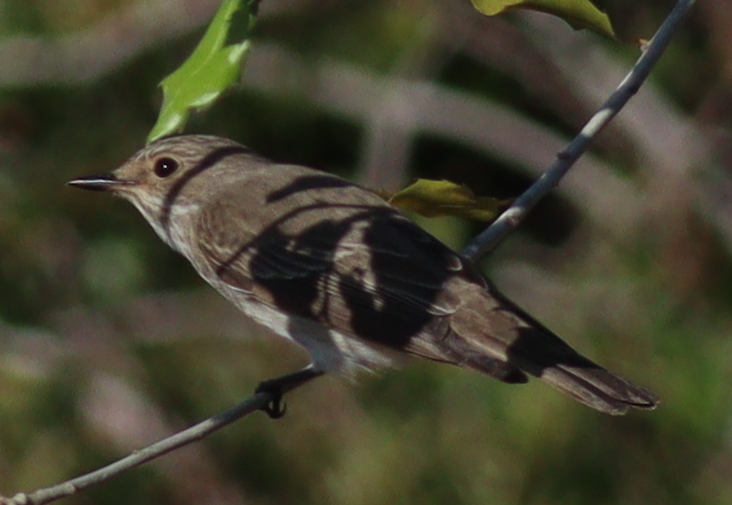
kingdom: Animalia
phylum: Chordata
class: Aves
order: Passeriformes
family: Muscicapidae
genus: Muscicapa
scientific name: Muscicapa striata
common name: Spotted flycatcher
